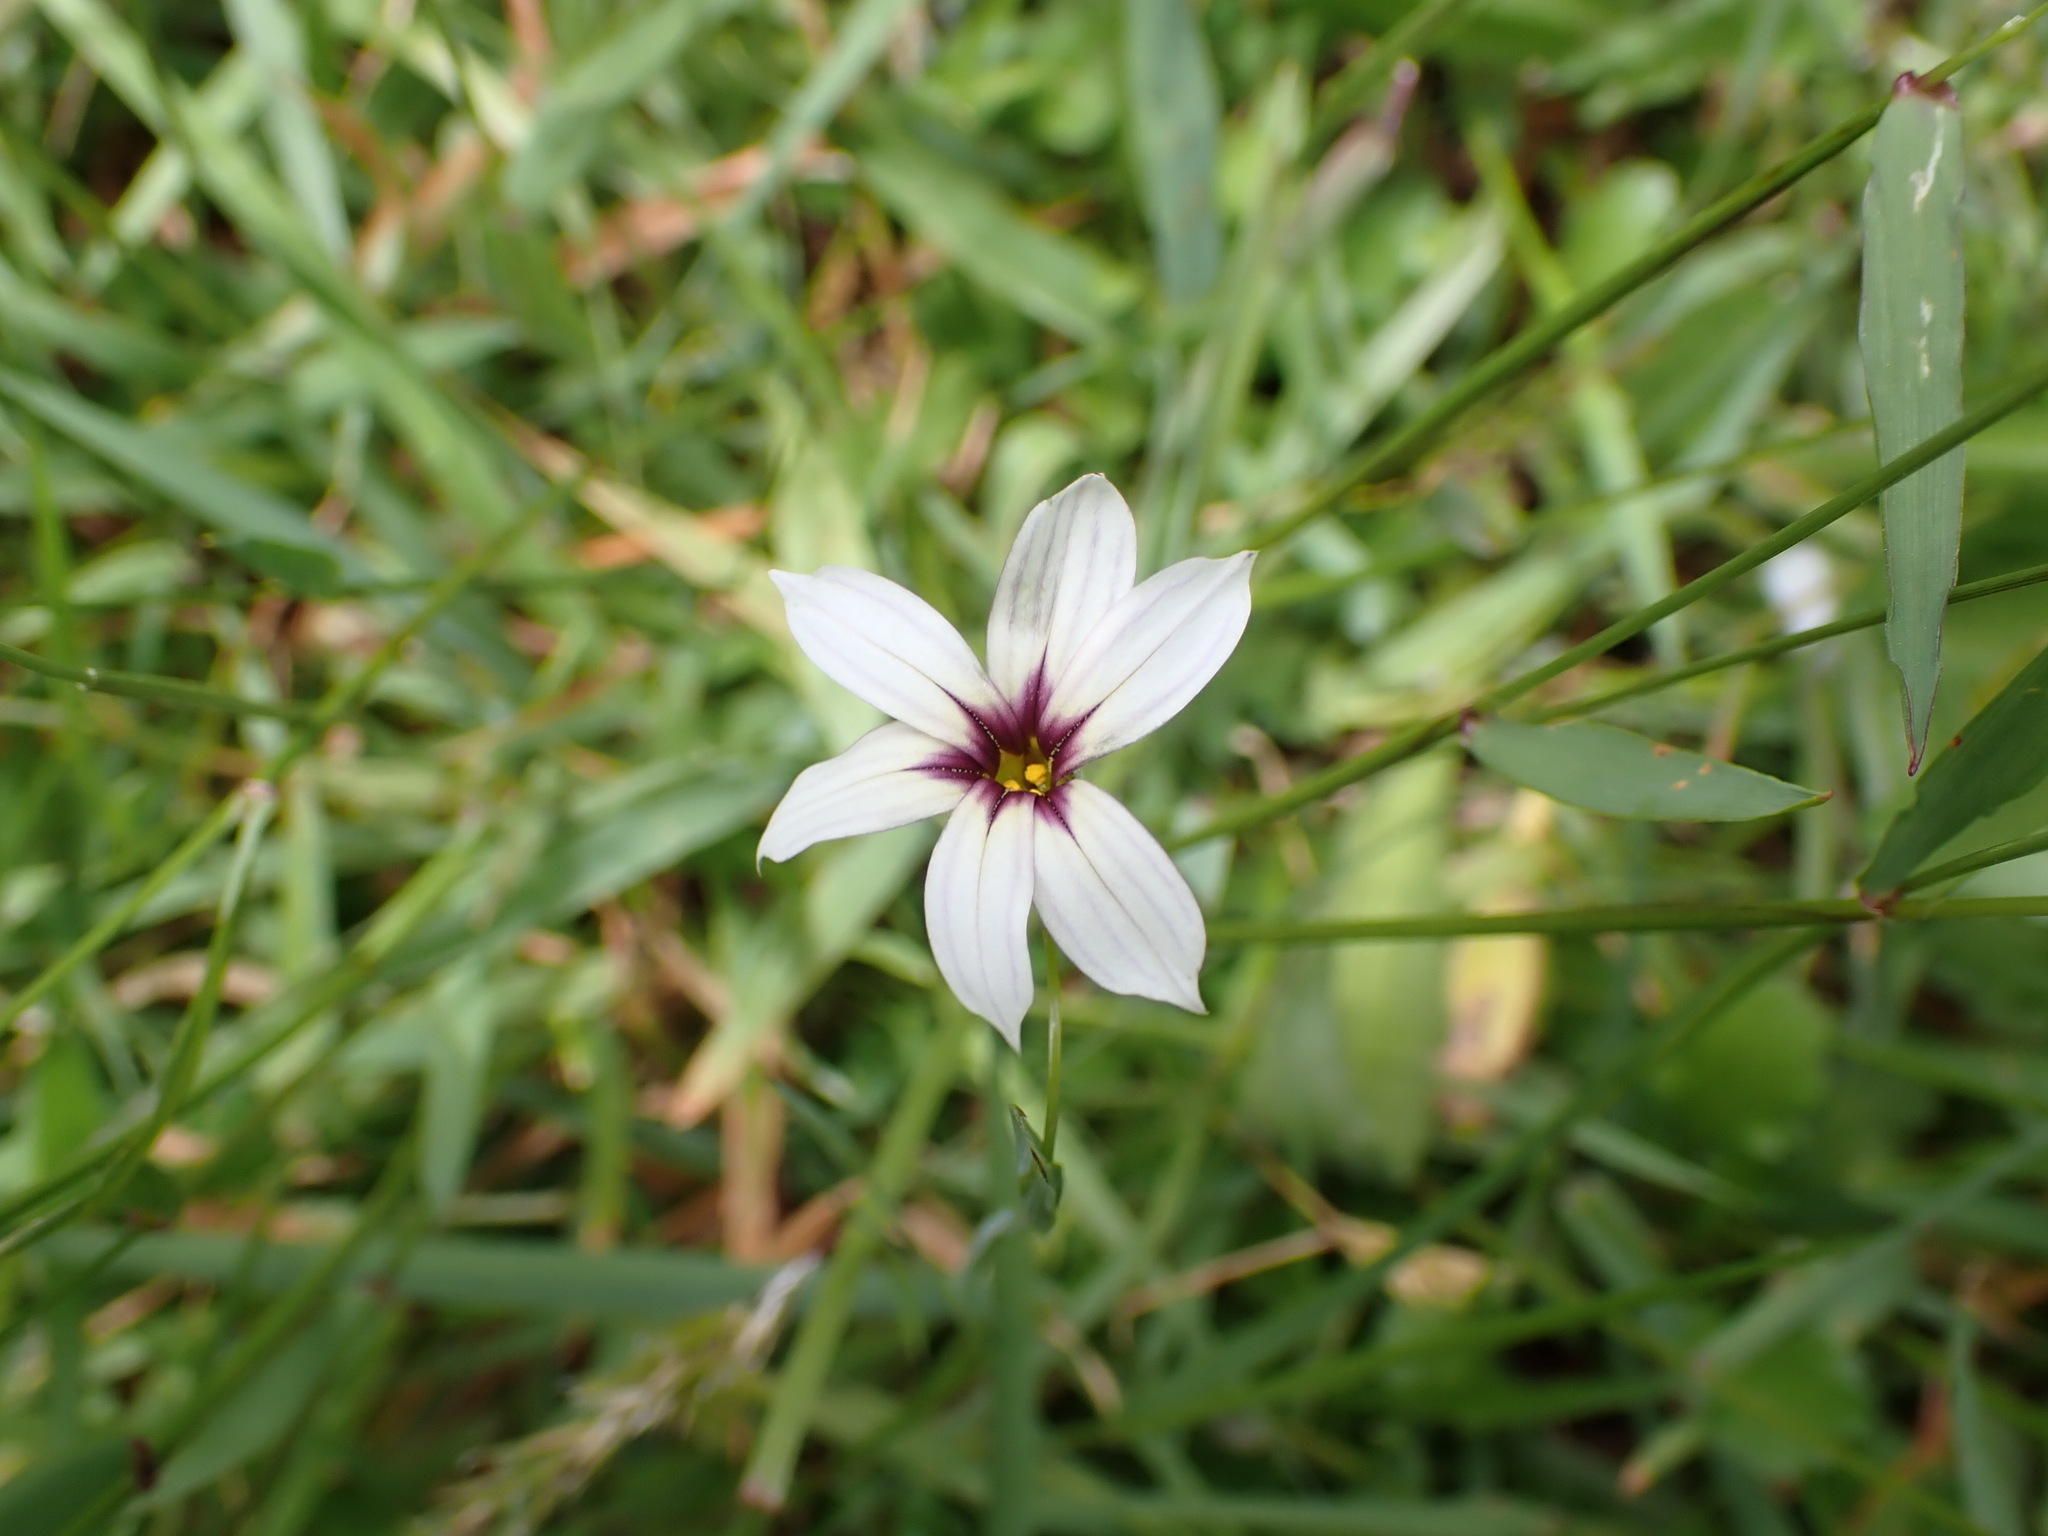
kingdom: Plantae
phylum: Tracheophyta
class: Liliopsida
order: Asparagales
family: Iridaceae
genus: Sisyrinchium
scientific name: Sisyrinchium micranthum
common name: Bermuda pigroot
